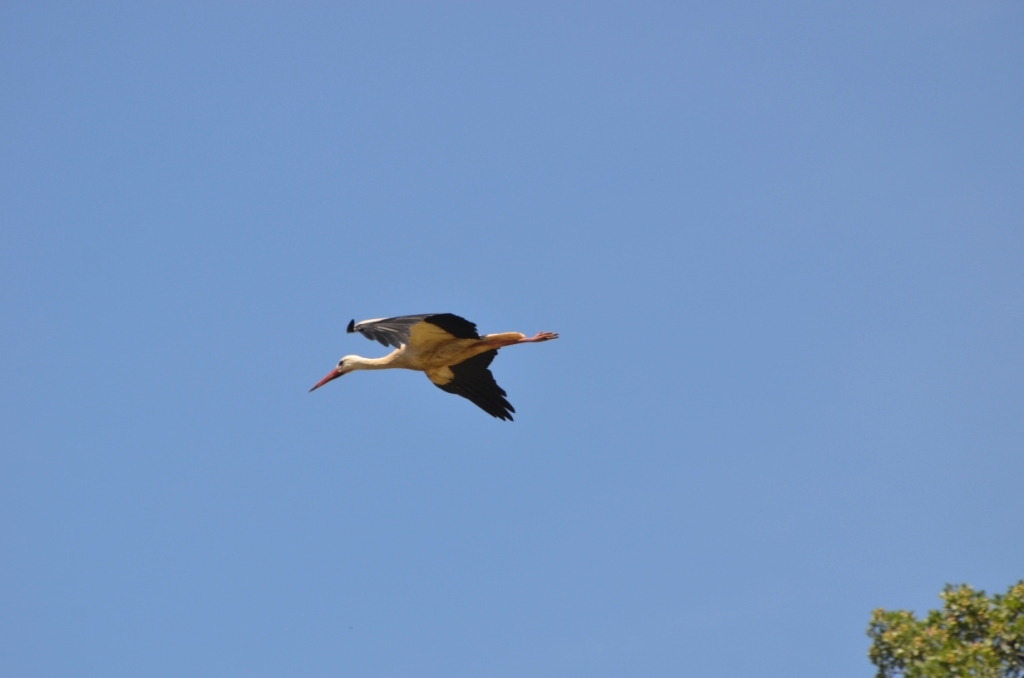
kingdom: Animalia
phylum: Chordata
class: Aves
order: Ciconiiformes
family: Ciconiidae
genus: Ciconia
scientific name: Ciconia ciconia
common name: White stork
